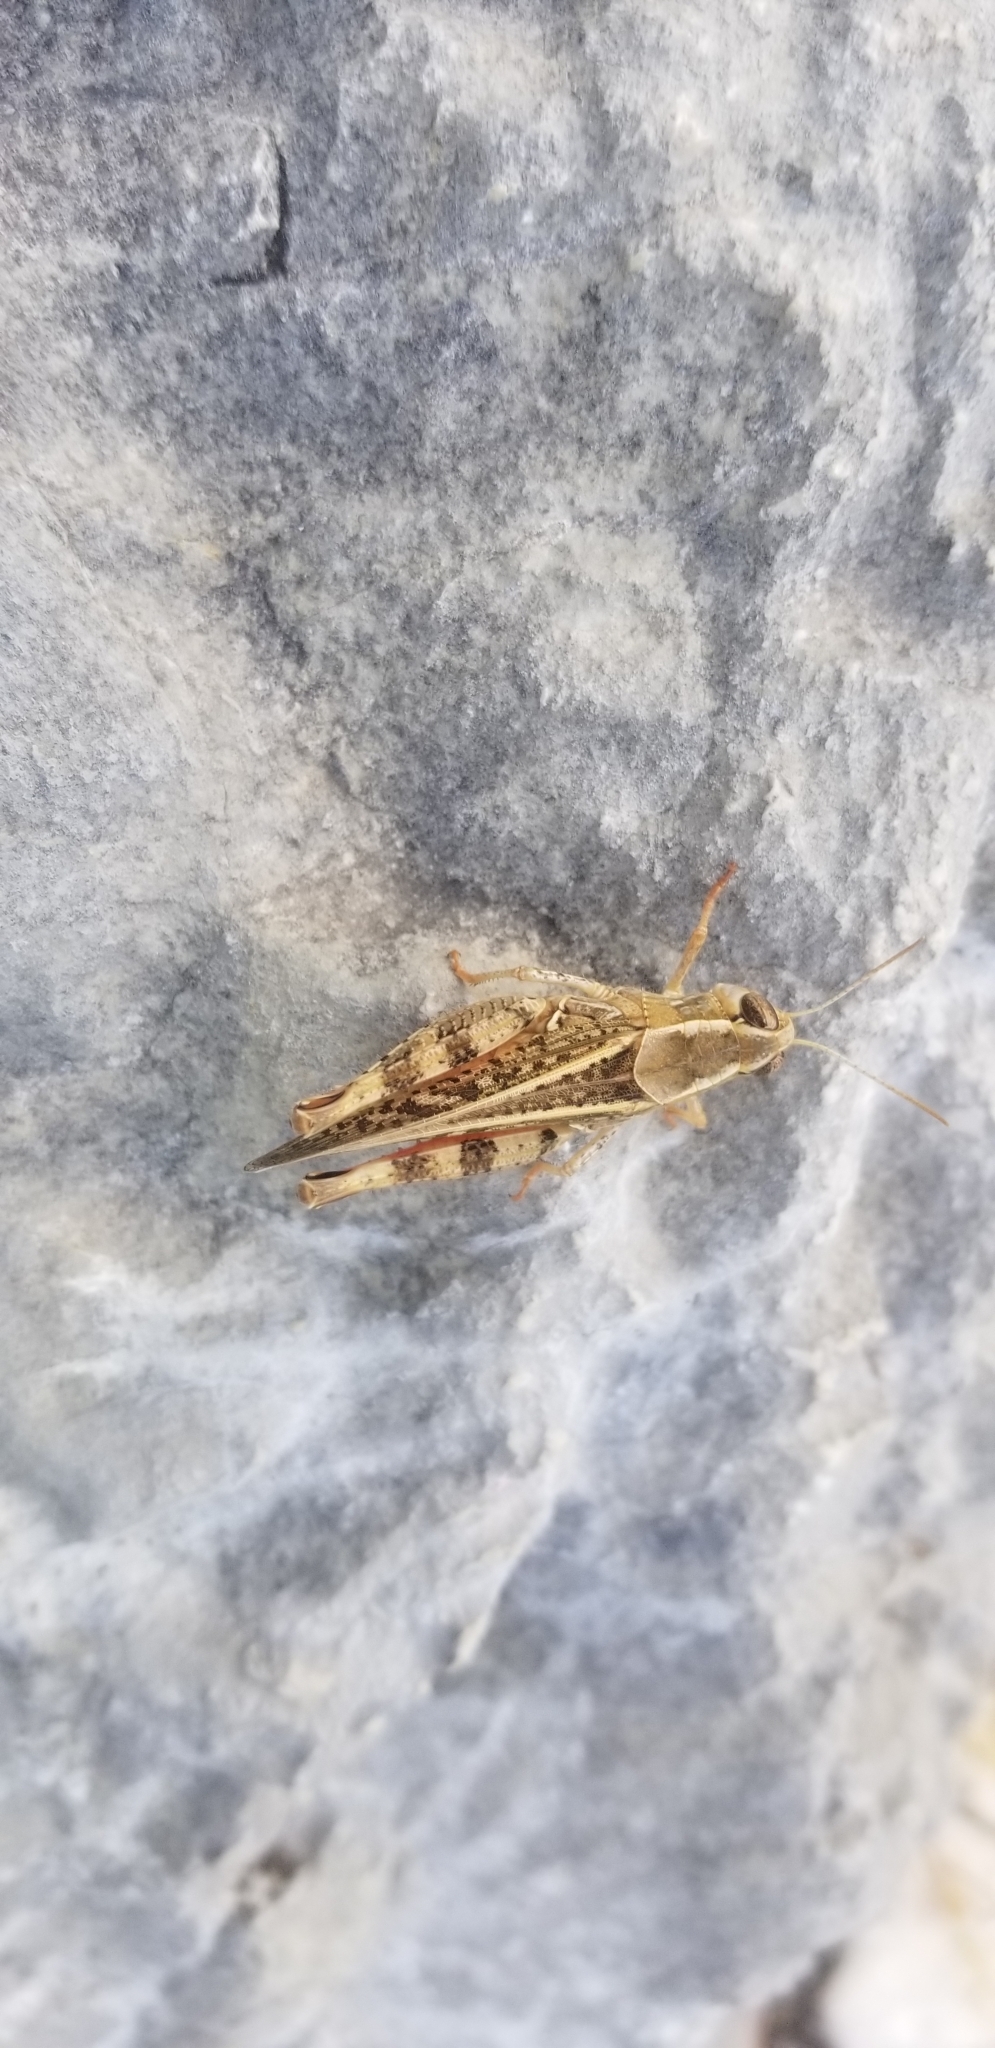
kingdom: Animalia
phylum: Arthropoda
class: Insecta
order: Orthoptera
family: Acrididae
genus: Calliptamus
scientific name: Calliptamus italicus
